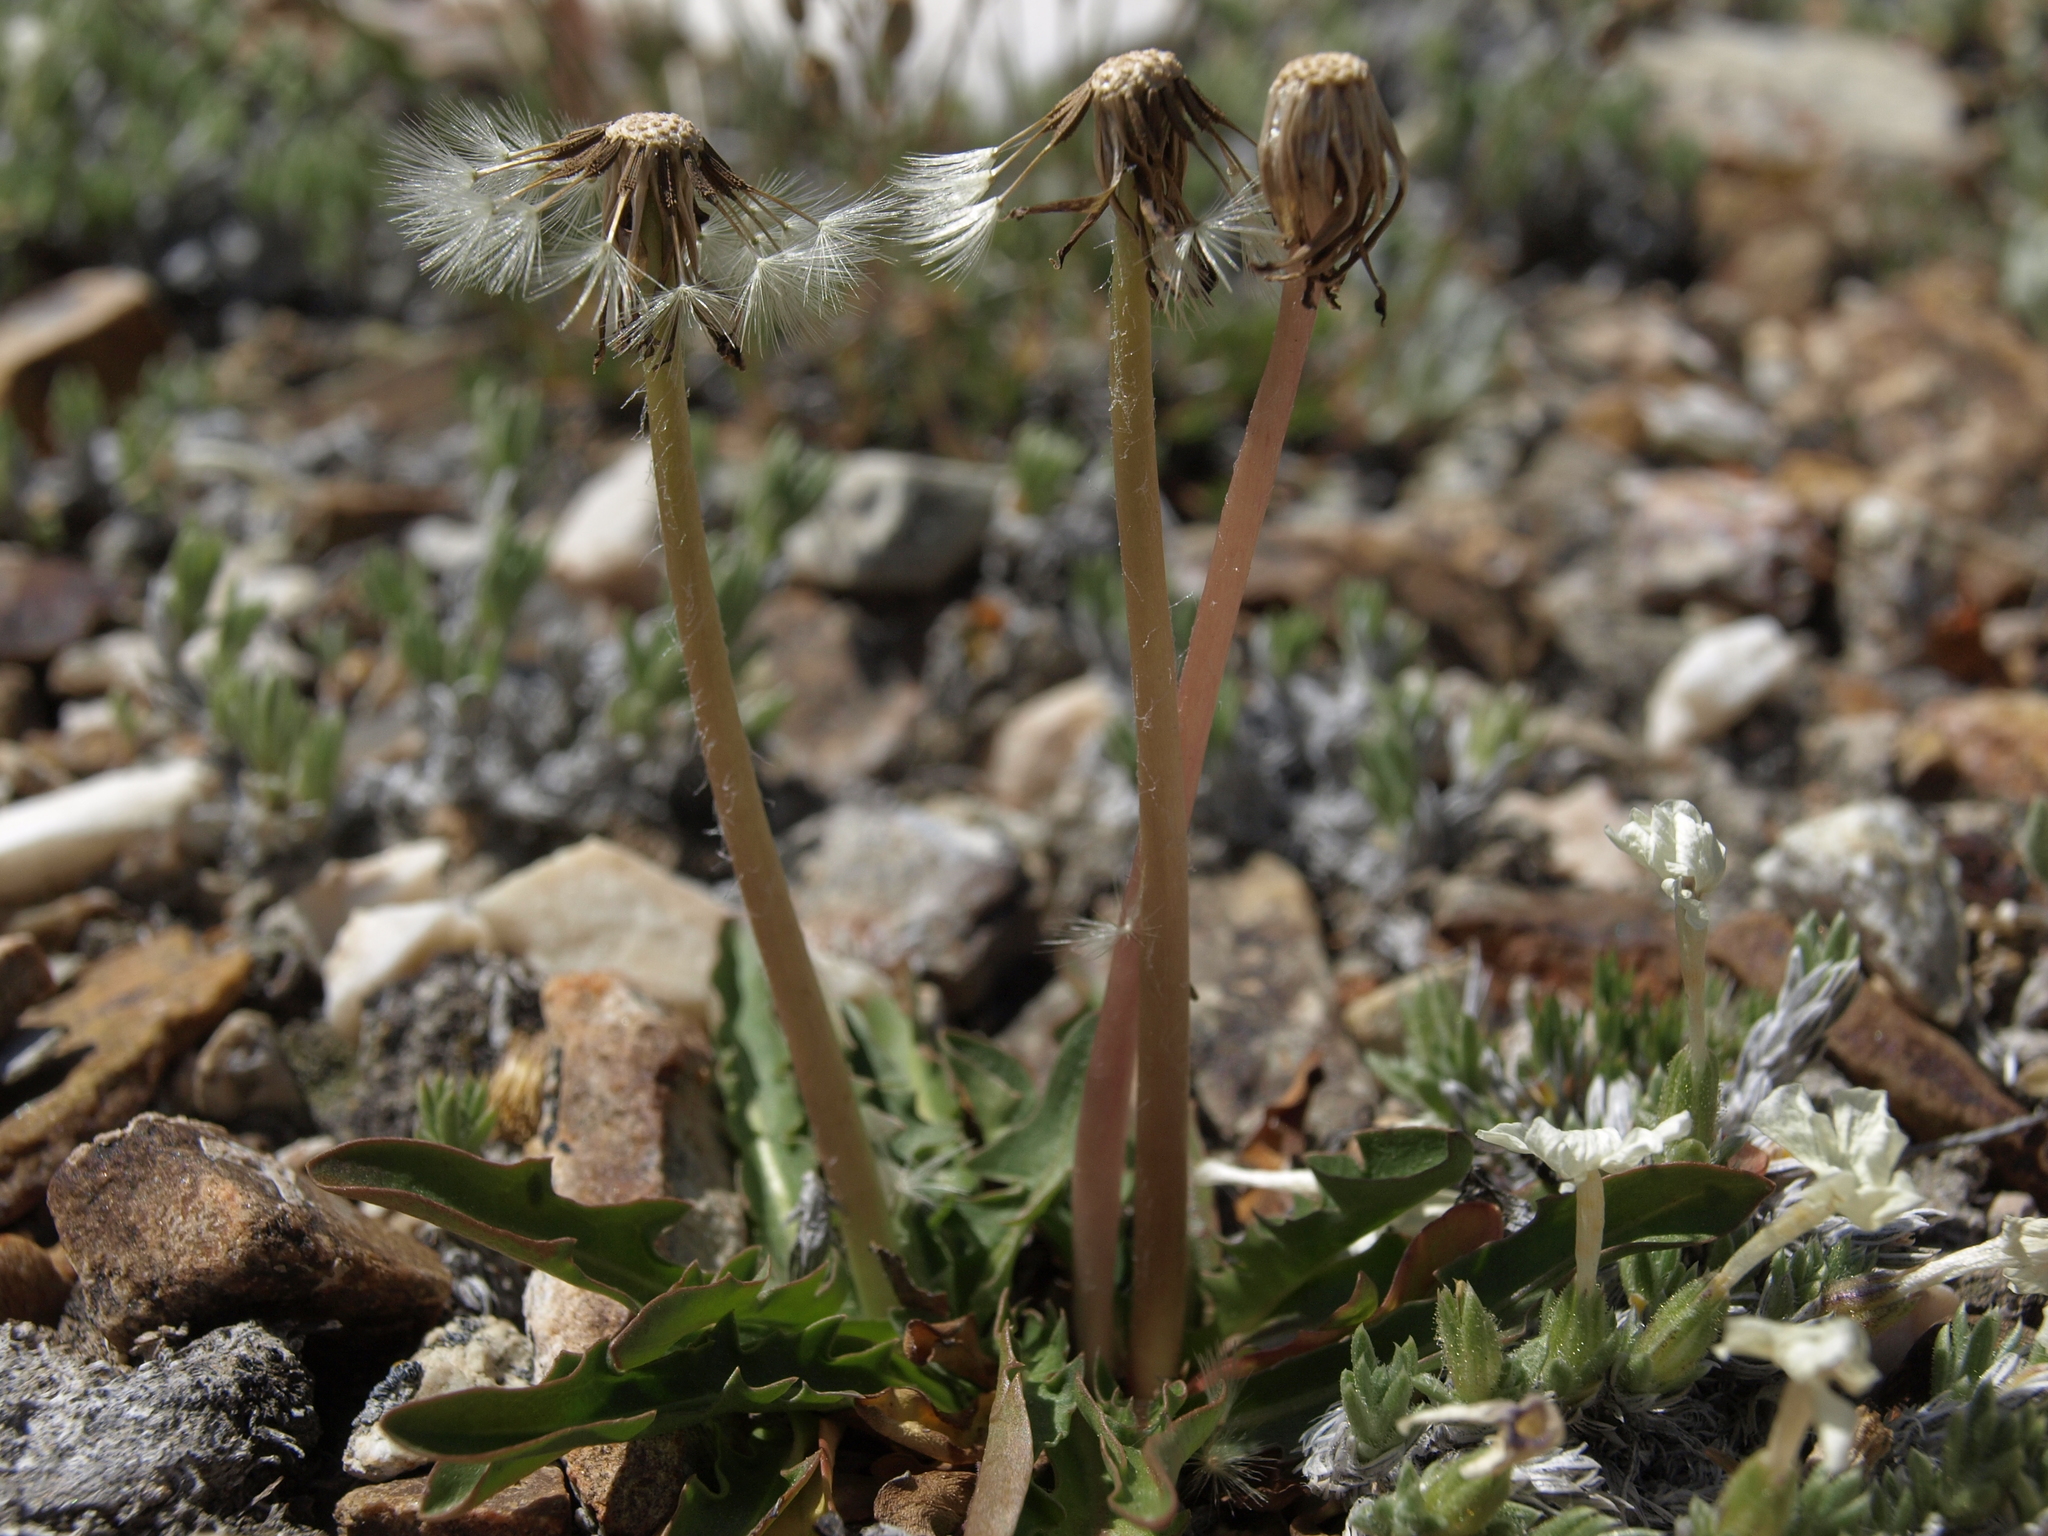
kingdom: Plantae
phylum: Tracheophyta
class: Magnoliopsida
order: Asterales
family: Asteraceae
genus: Taraxacum
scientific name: Taraxacum ceratophorum
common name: Horn-bearing dandelion
